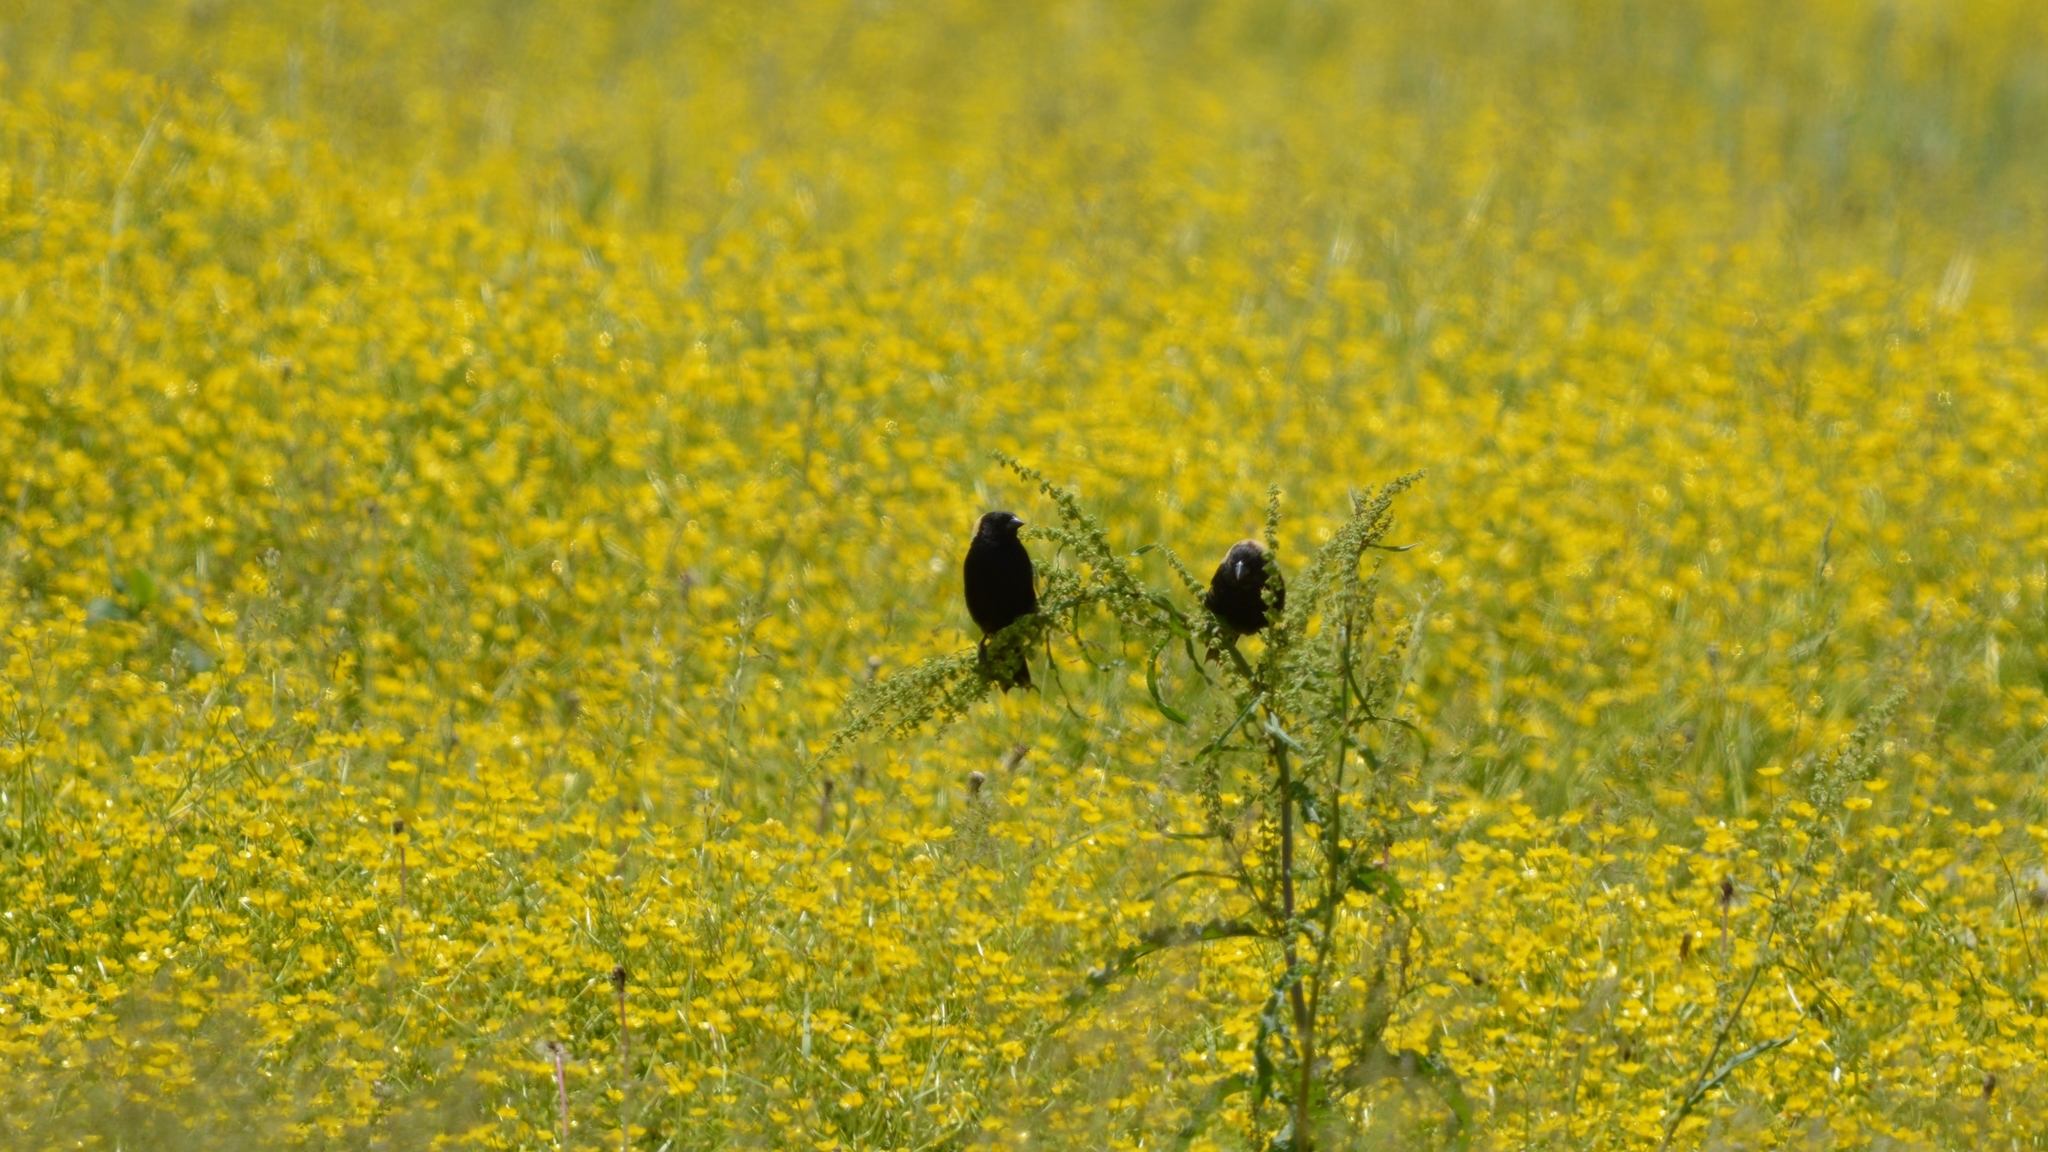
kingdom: Animalia
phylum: Chordata
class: Aves
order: Passeriformes
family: Icteridae
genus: Dolichonyx
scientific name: Dolichonyx oryzivorus
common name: Bobolink
